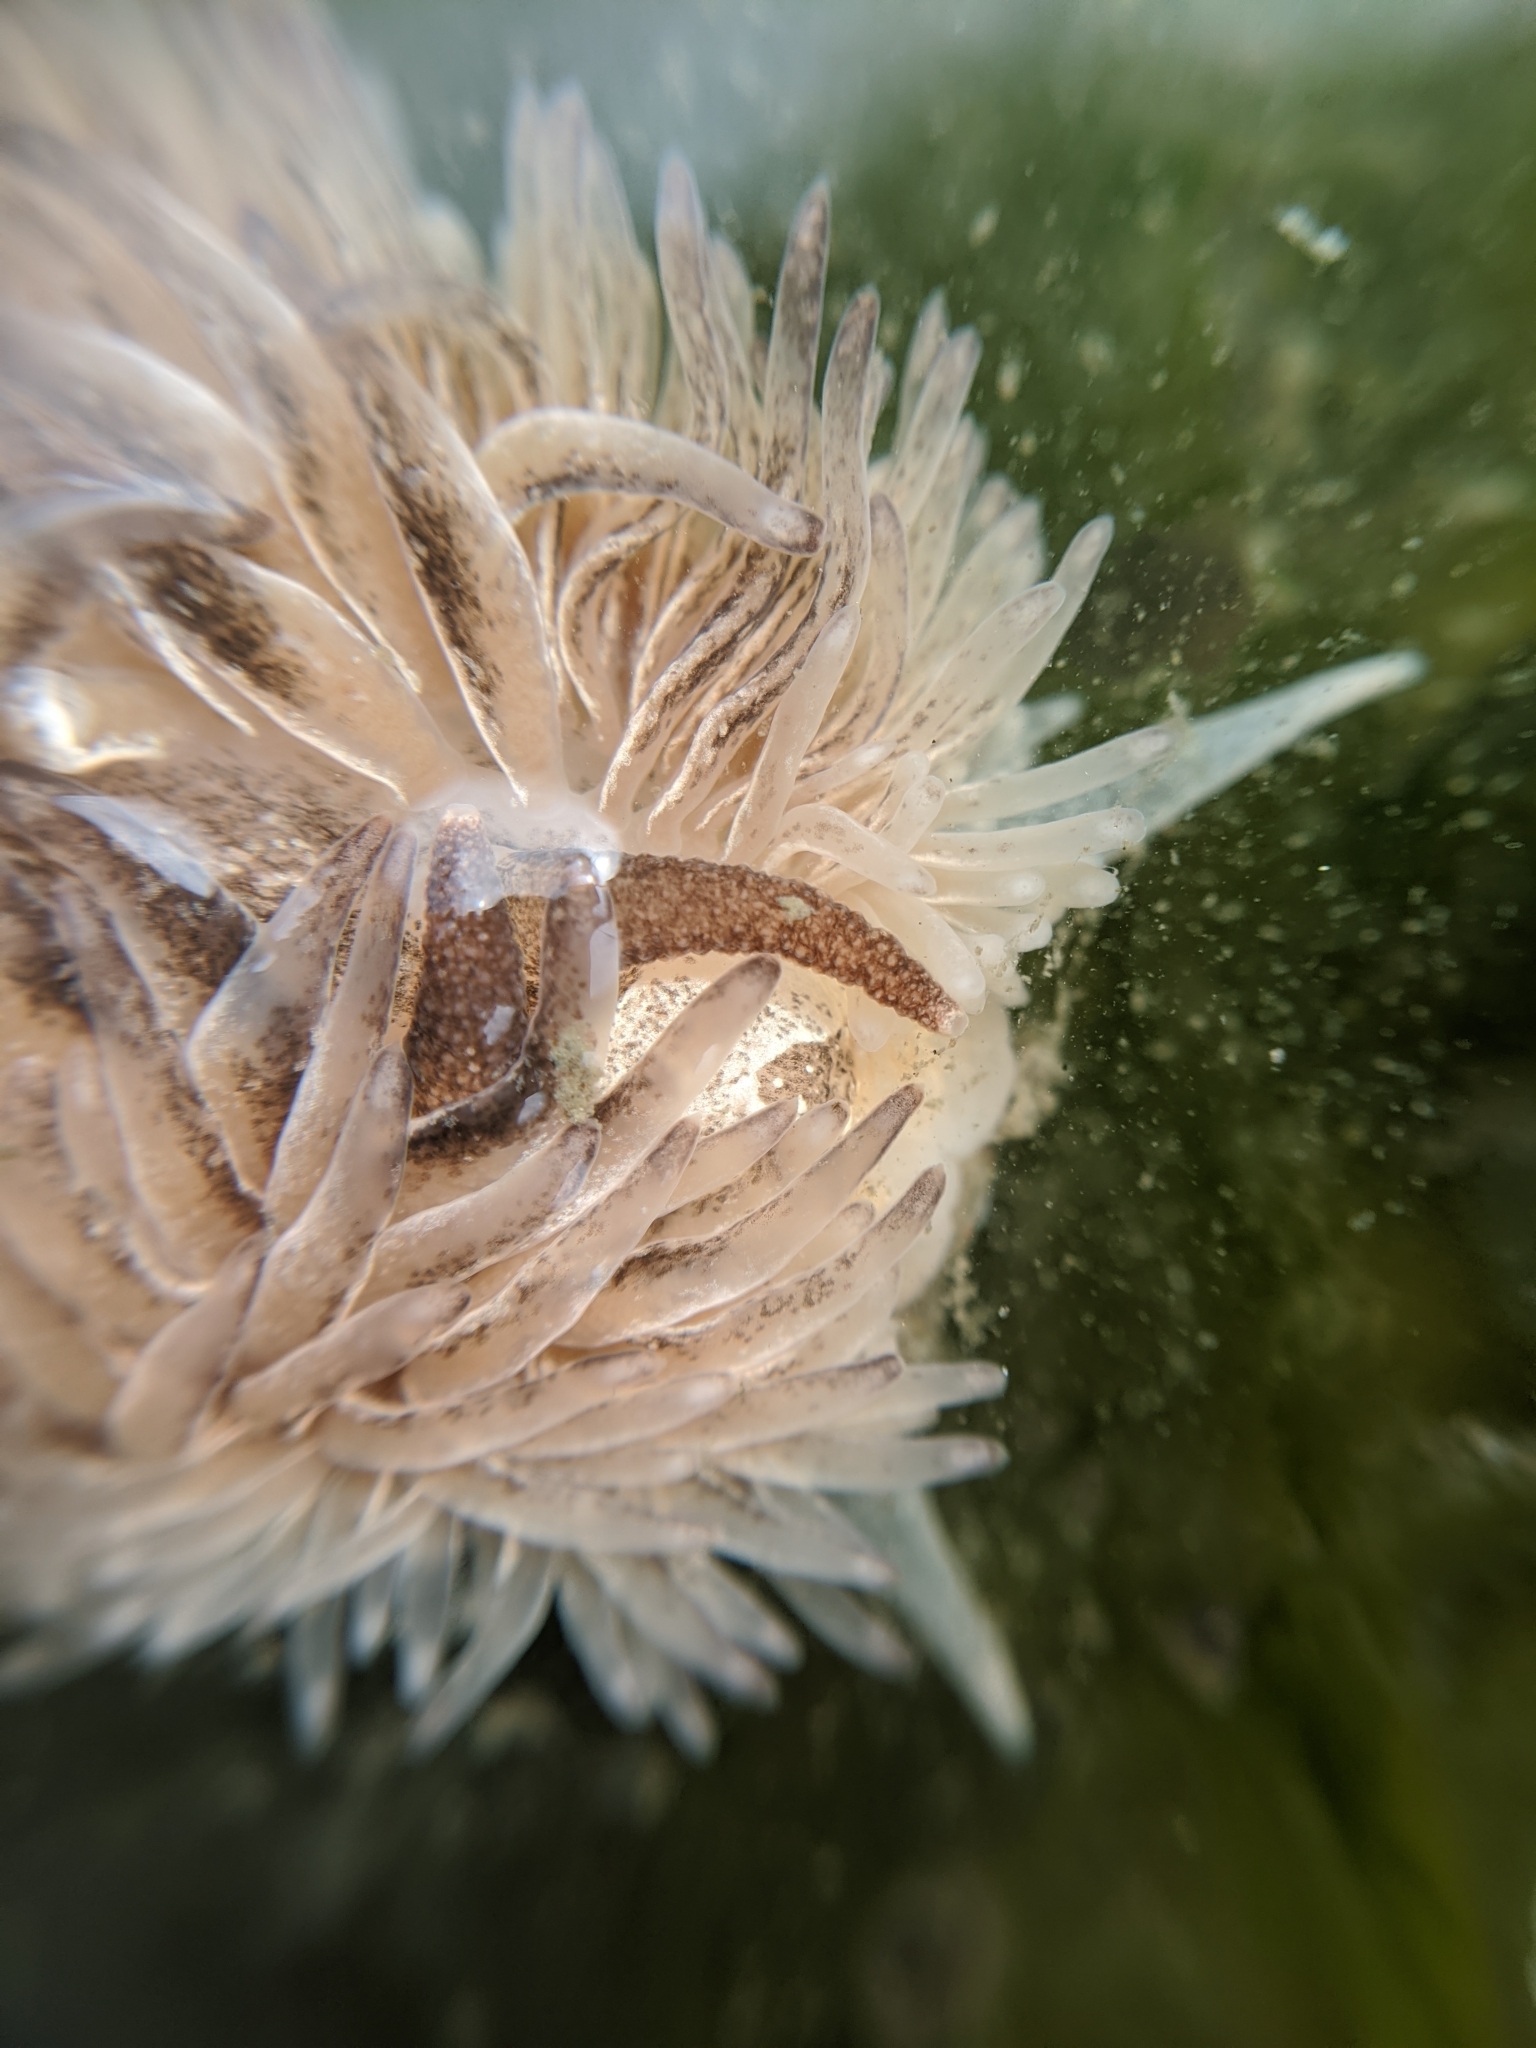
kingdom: Animalia
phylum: Mollusca
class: Gastropoda
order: Nudibranchia
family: Aeolidiidae
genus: Aeolidia
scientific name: Aeolidia loui
